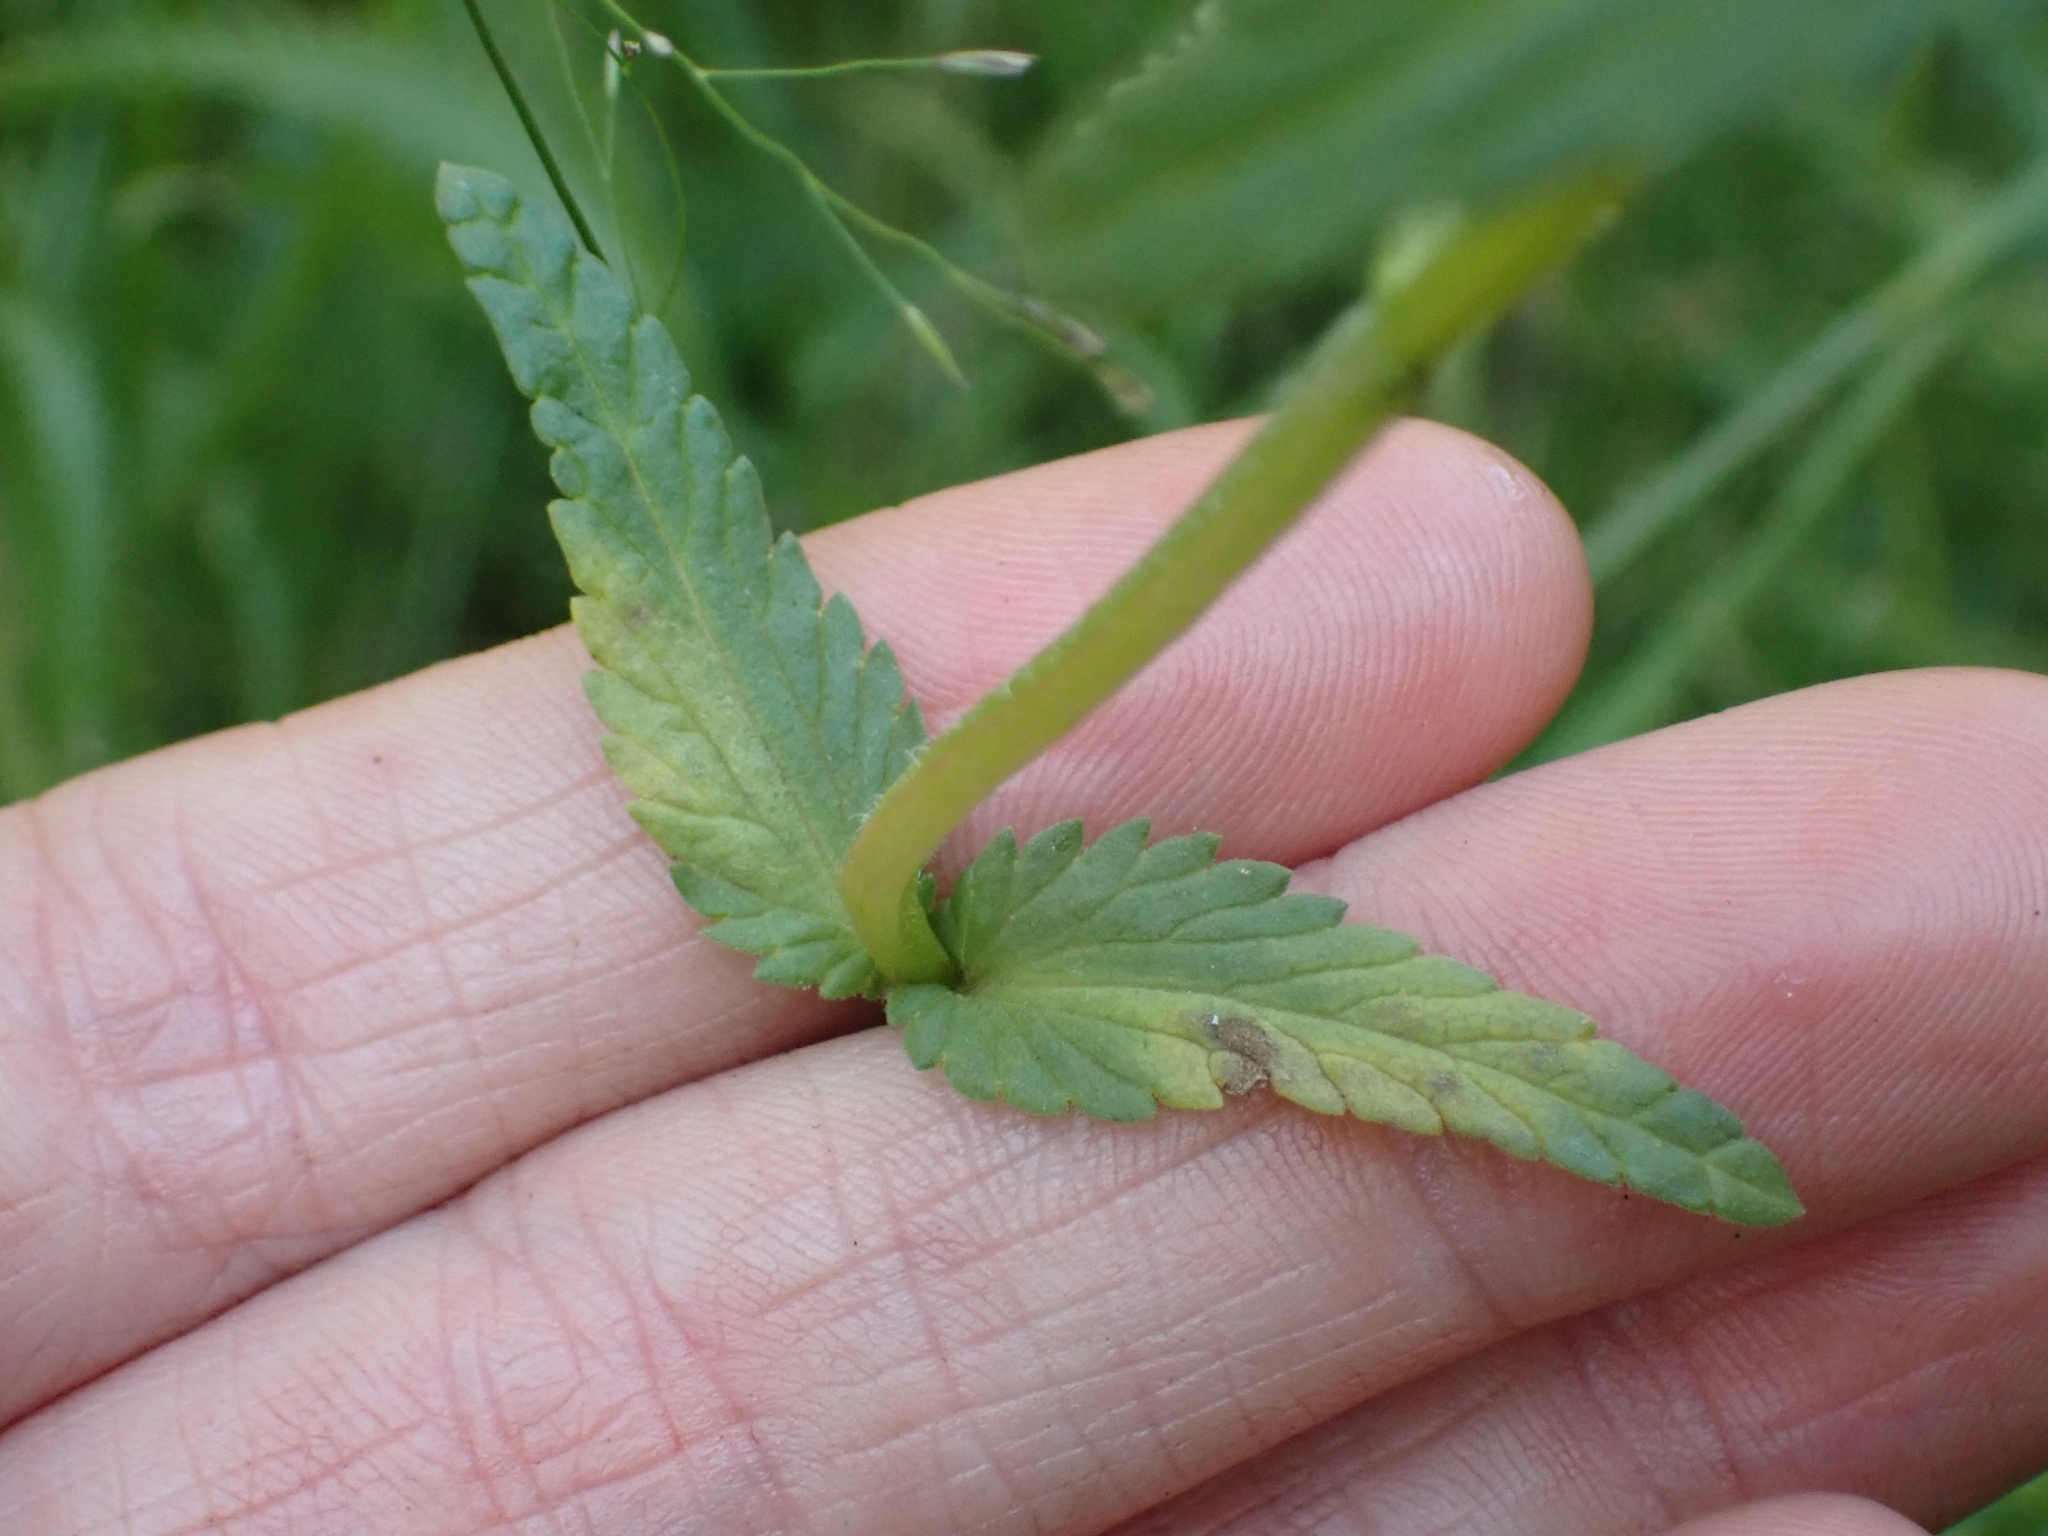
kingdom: Plantae
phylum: Tracheophyta
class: Magnoliopsida
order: Lamiales
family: Orobanchaceae
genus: Rhinanthus
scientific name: Rhinanthus groenlandicus
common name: Little yellow rattle
